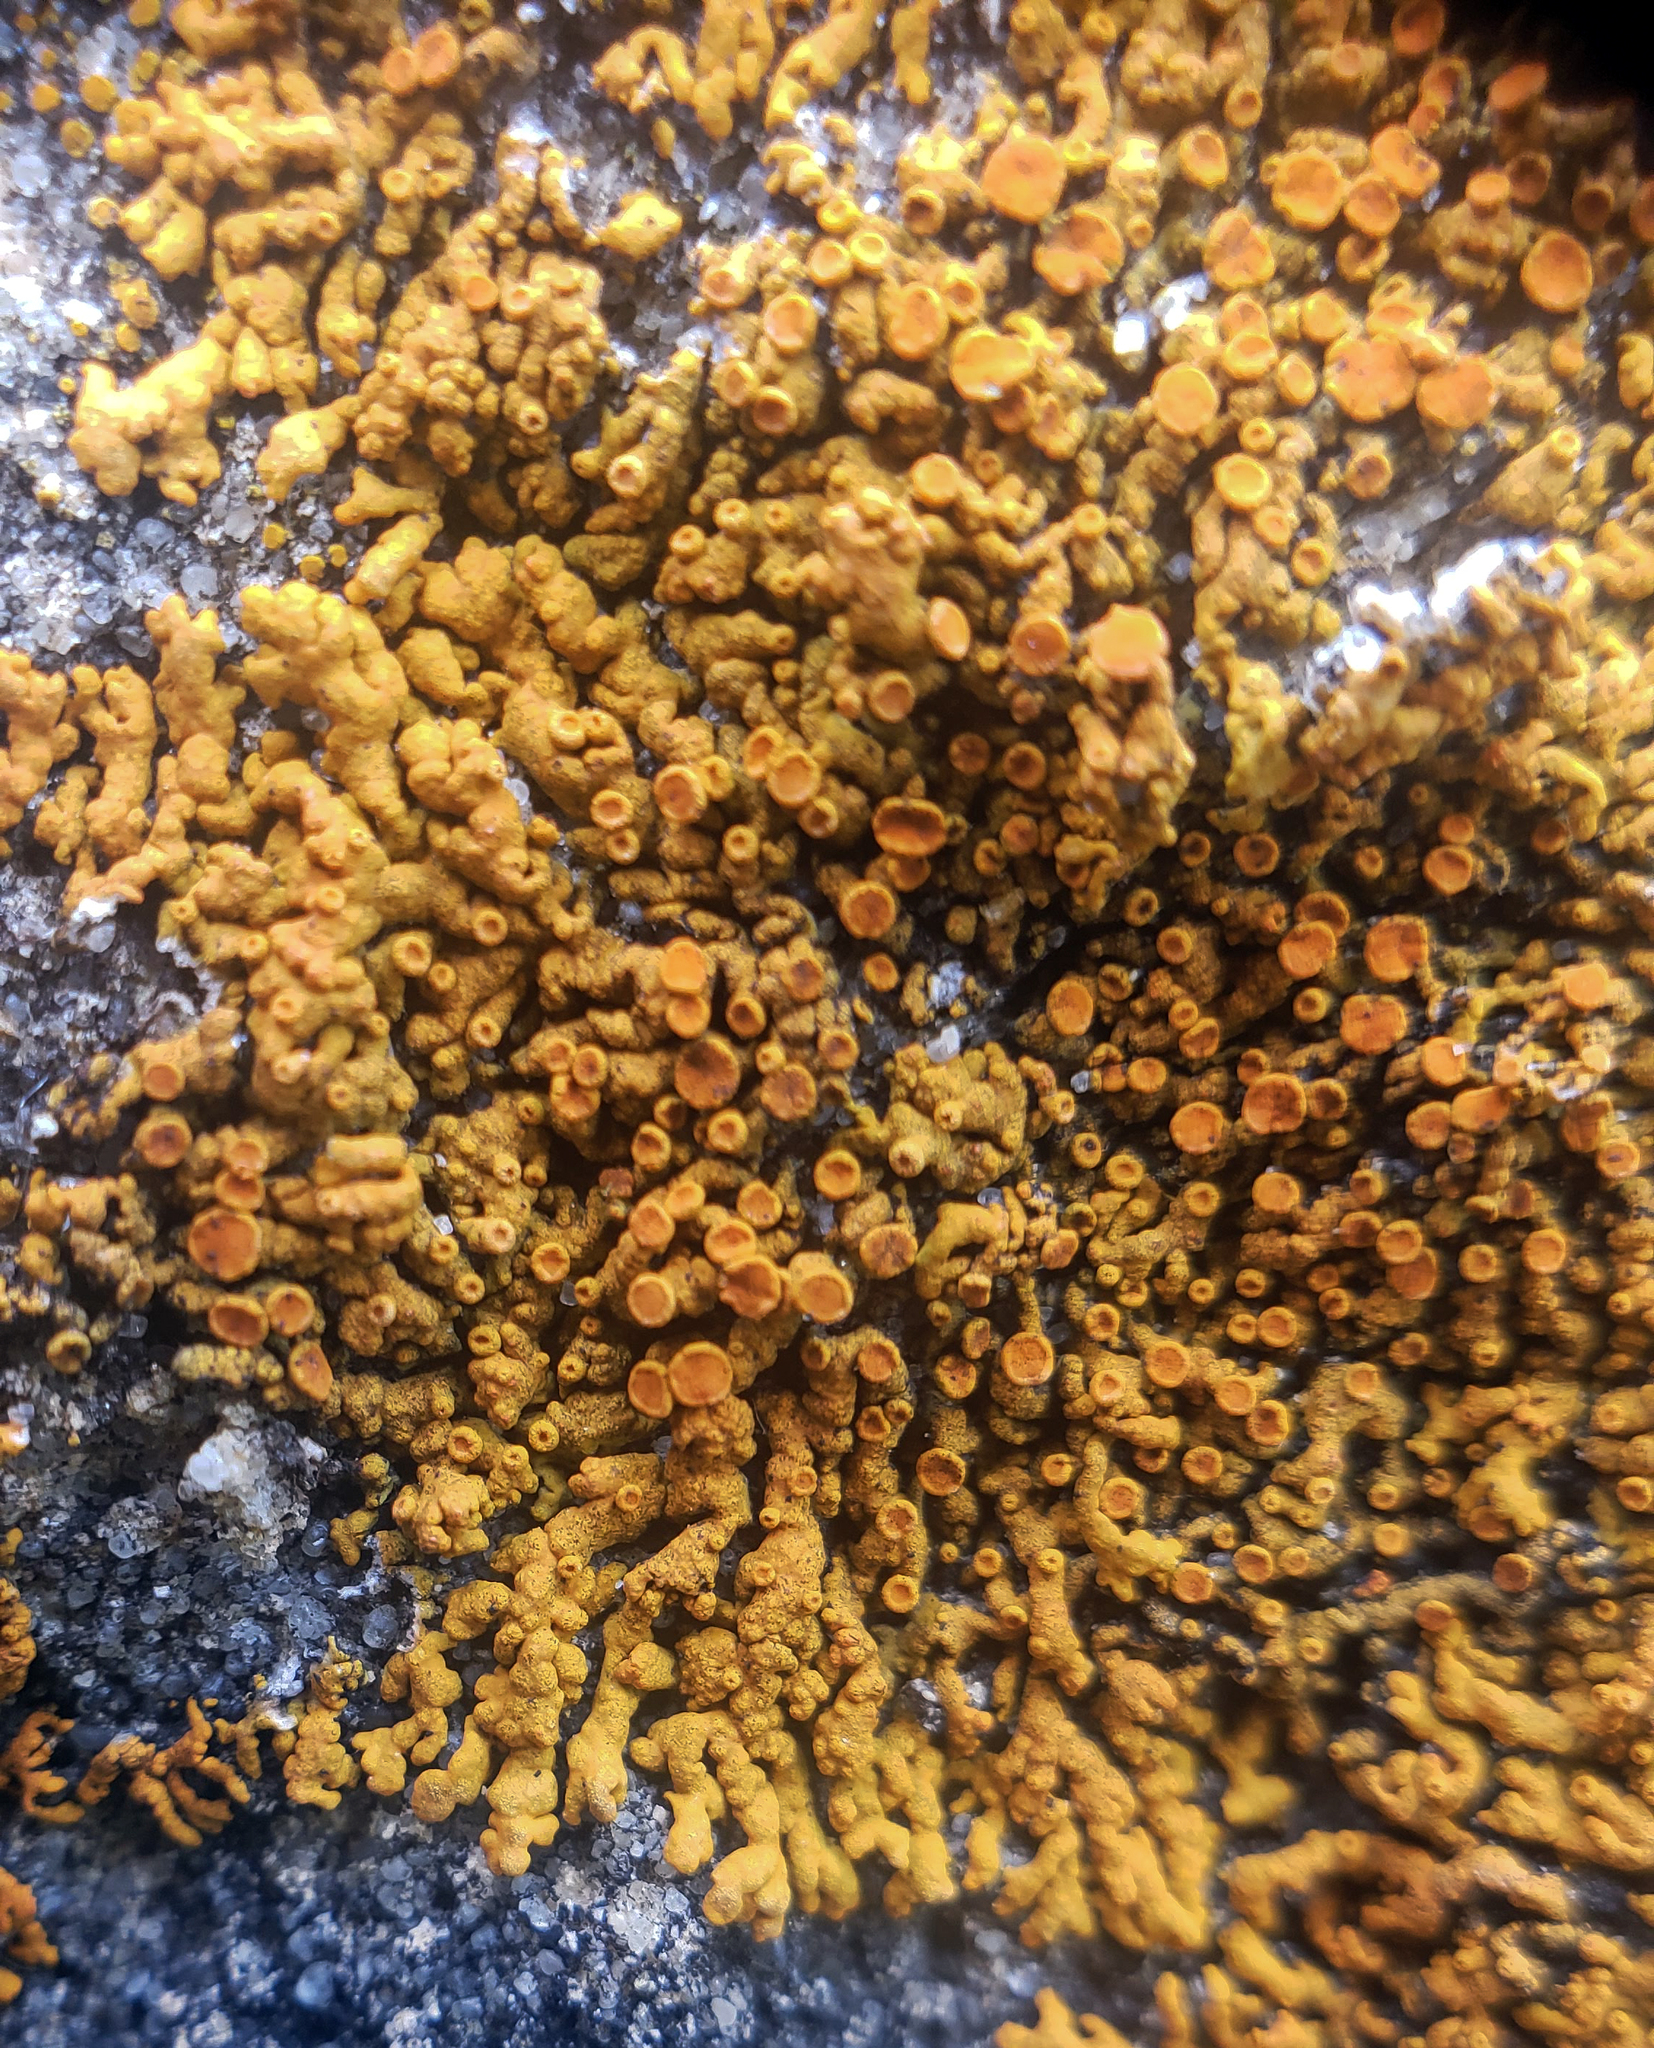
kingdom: Fungi
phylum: Ascomycota
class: Lecanoromycetes
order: Teloschistales
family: Teloschistaceae
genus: Xanthoria
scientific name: Xanthoria elegans
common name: Elegant sunburst lichen
